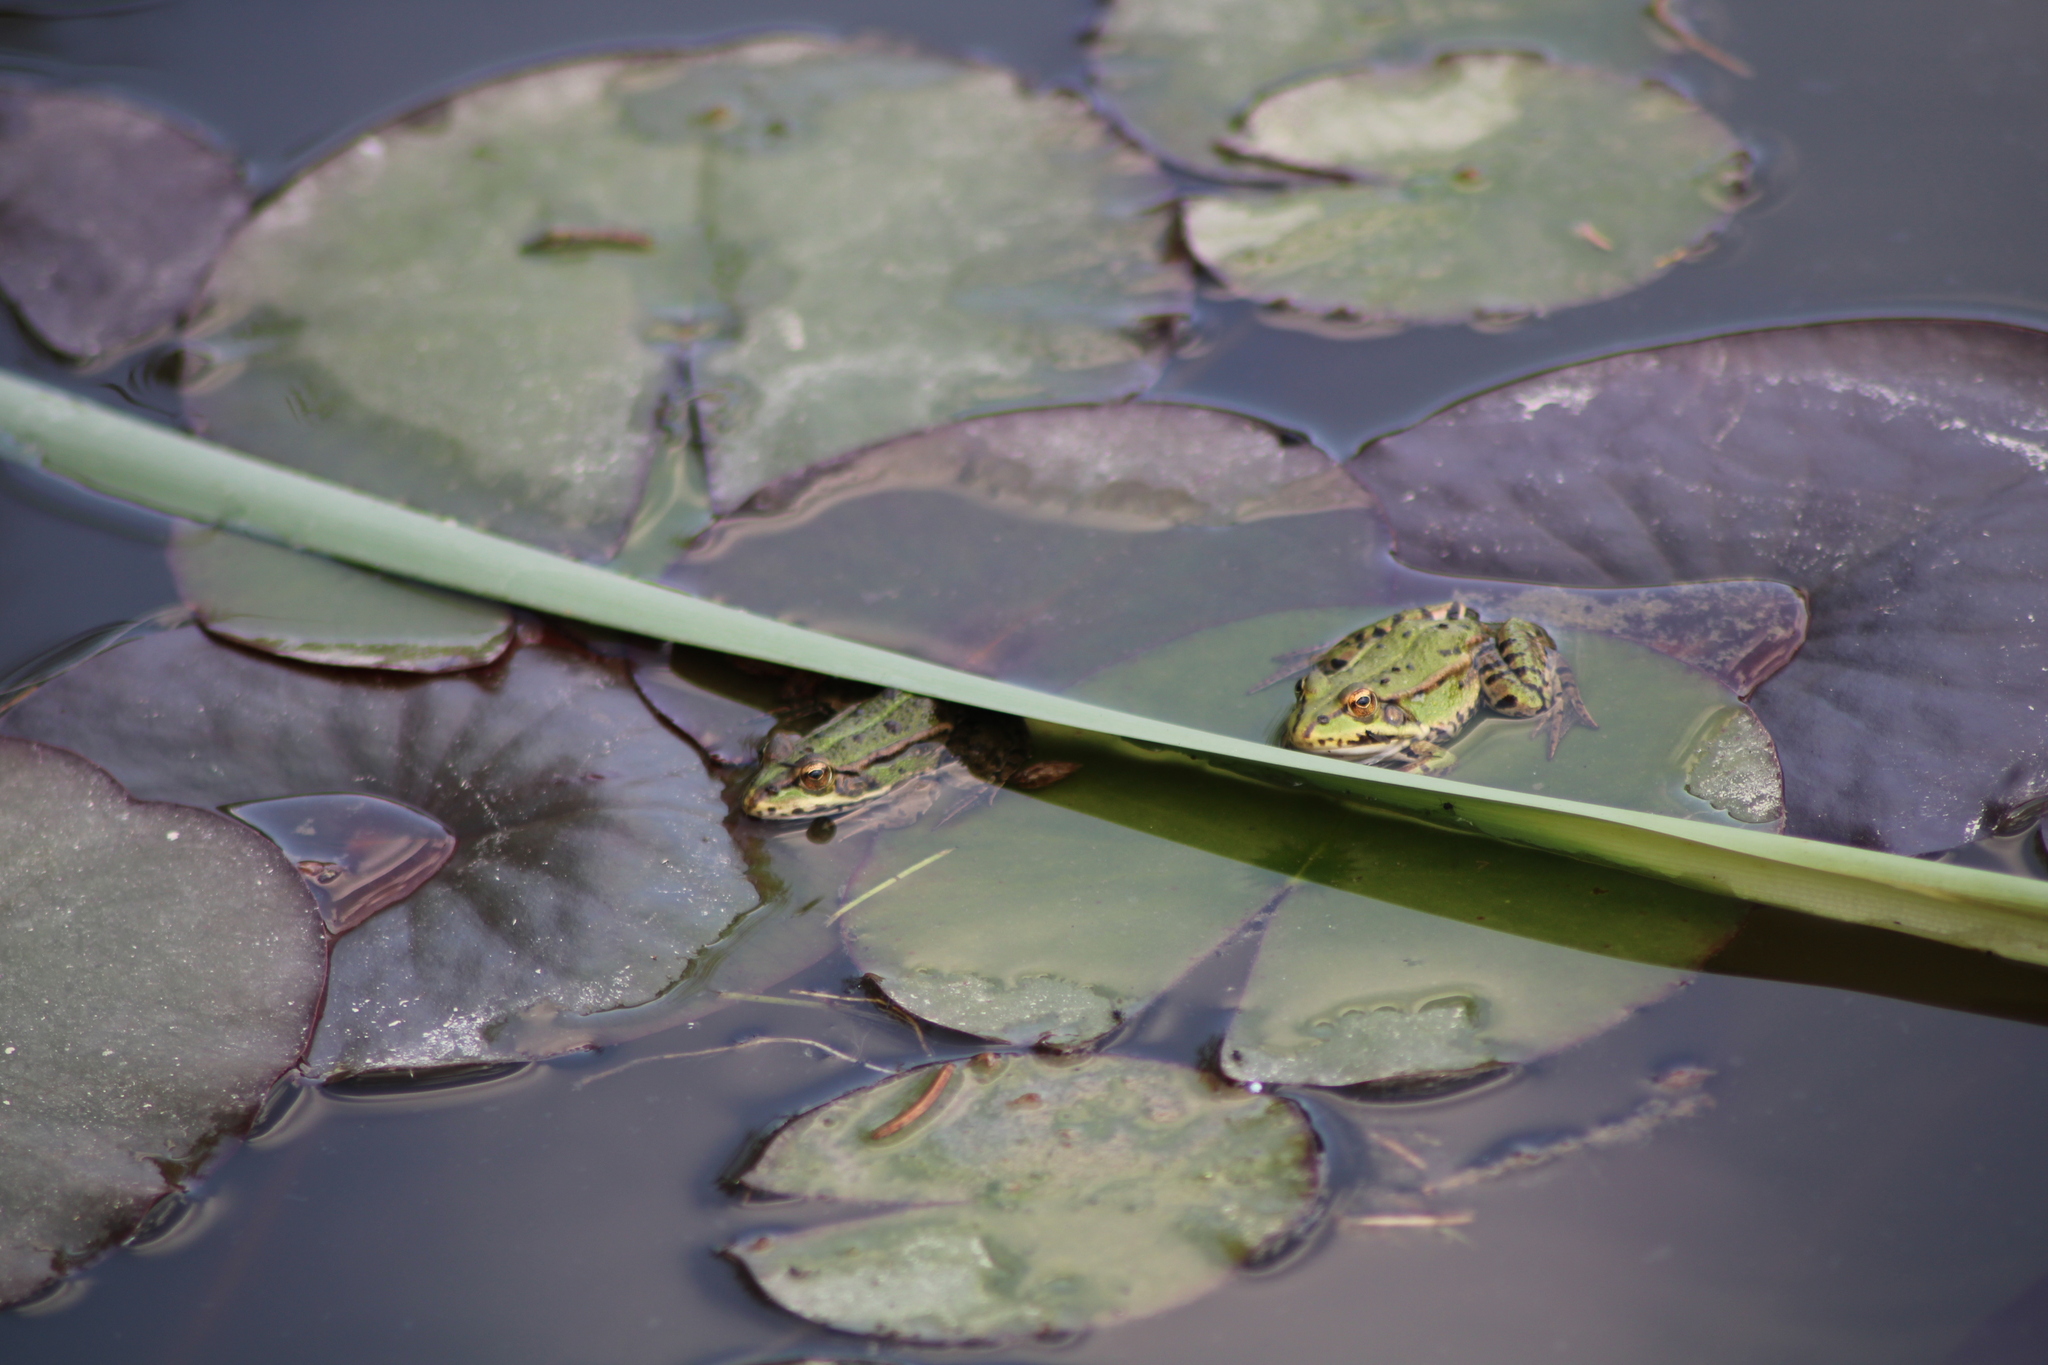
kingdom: Animalia
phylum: Chordata
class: Amphibia
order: Anura
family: Ranidae
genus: Pelophylax
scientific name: Pelophylax
